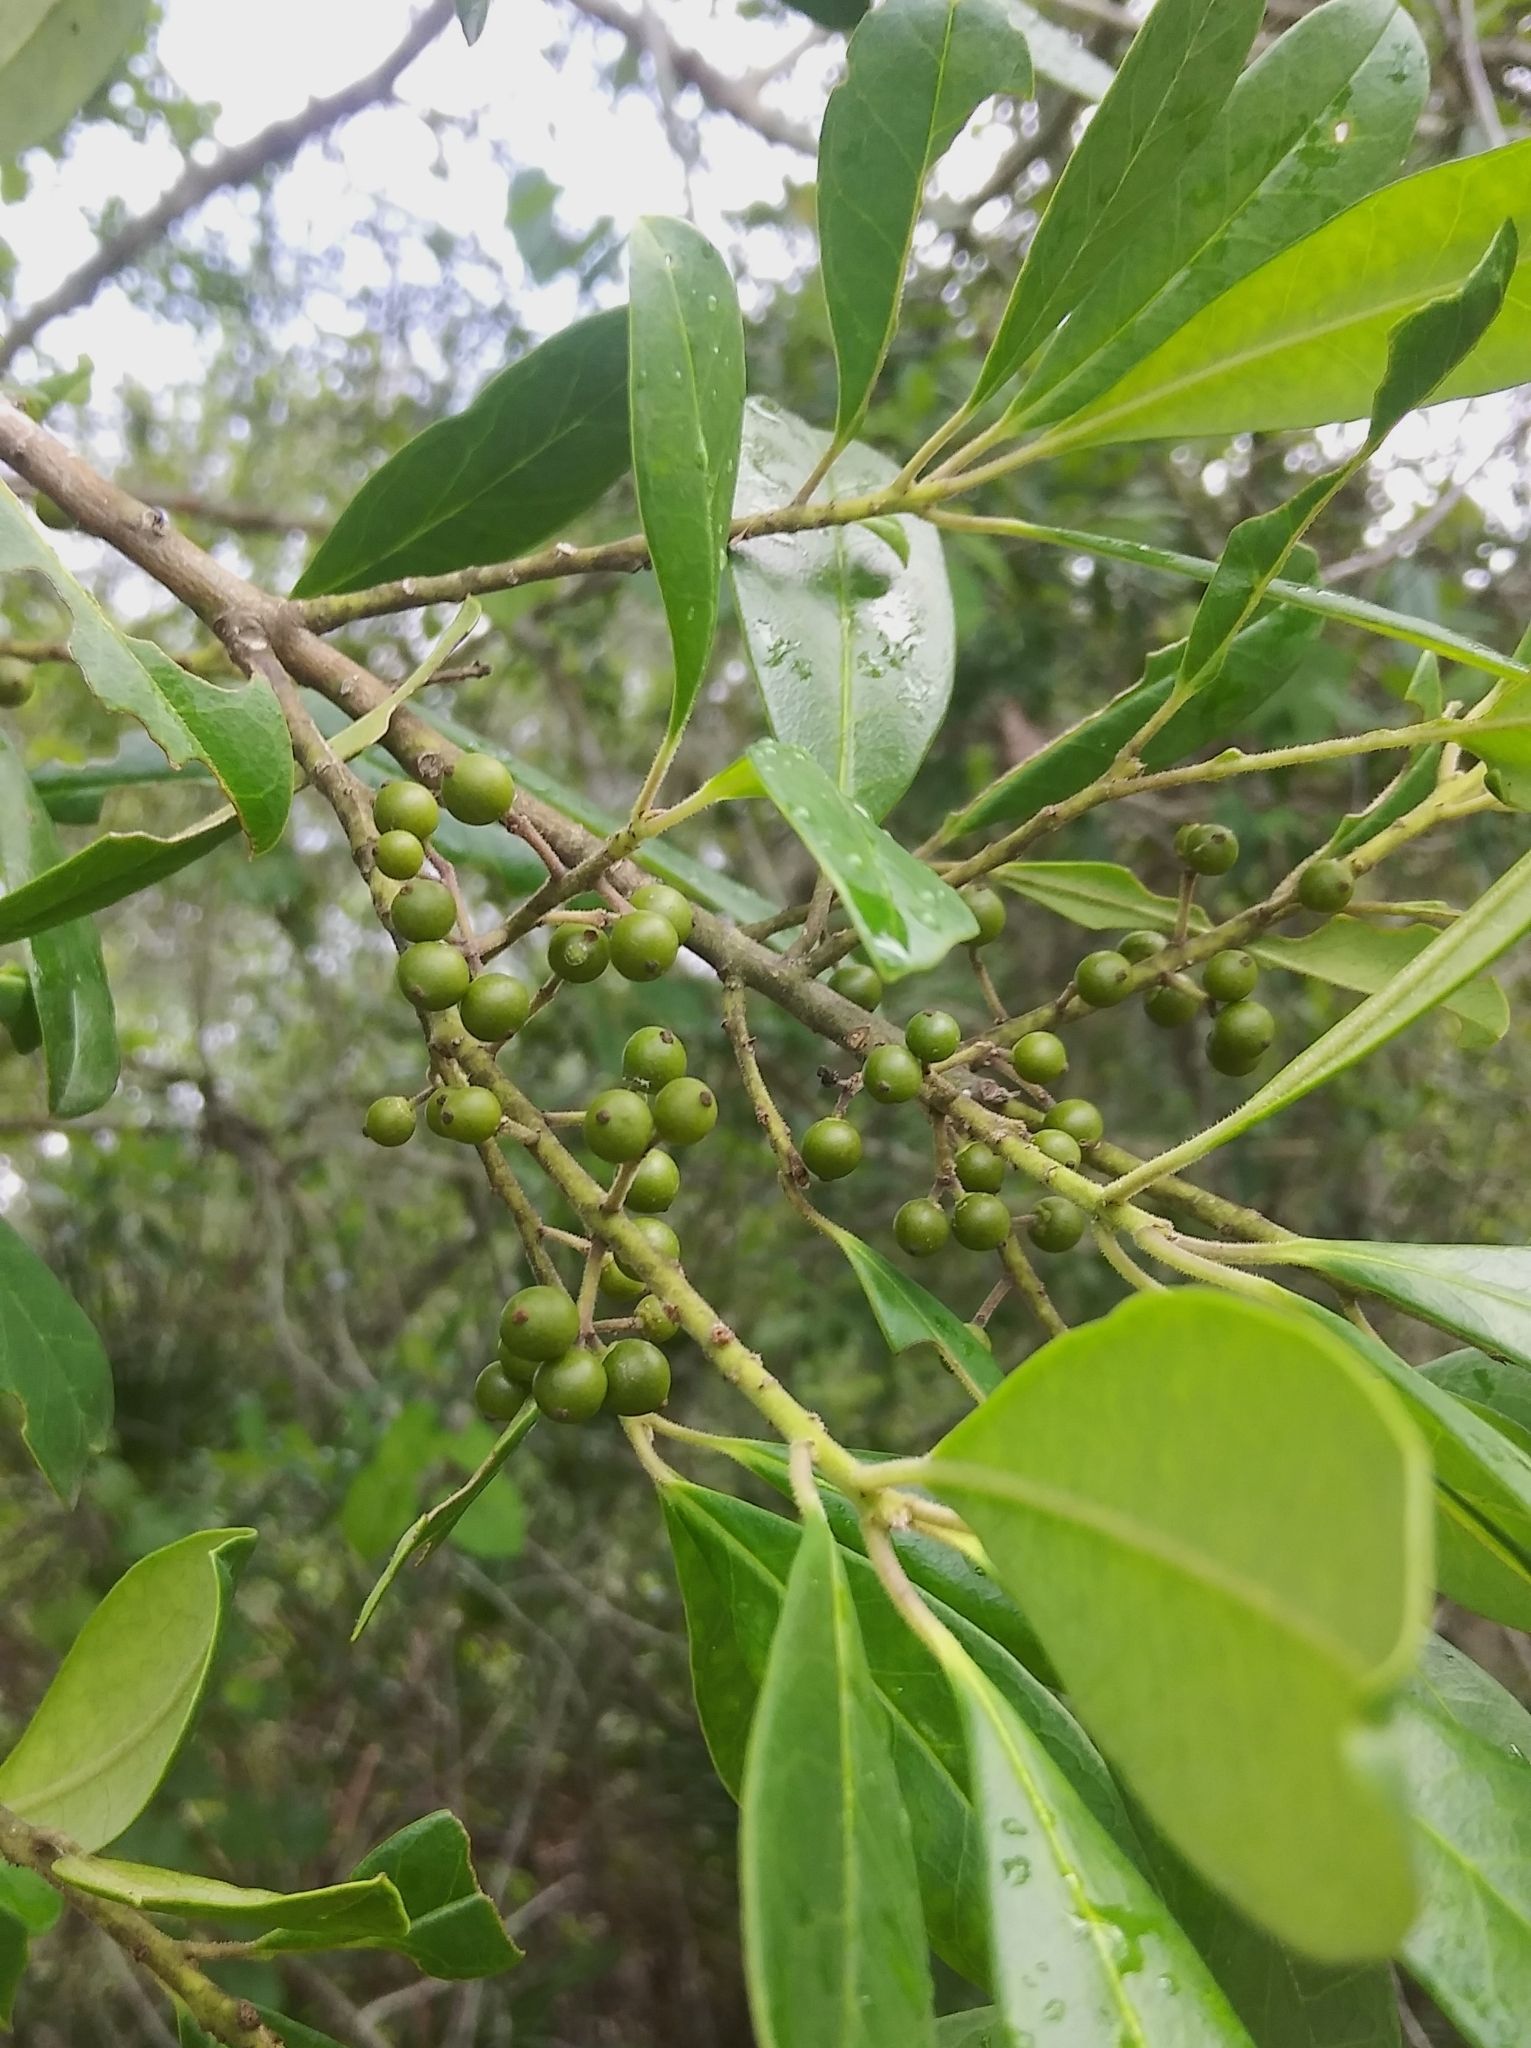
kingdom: Plantae
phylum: Tracheophyta
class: Magnoliopsida
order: Aquifoliales
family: Aquifoliaceae
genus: Ilex
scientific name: Ilex cassine
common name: Dahoon
